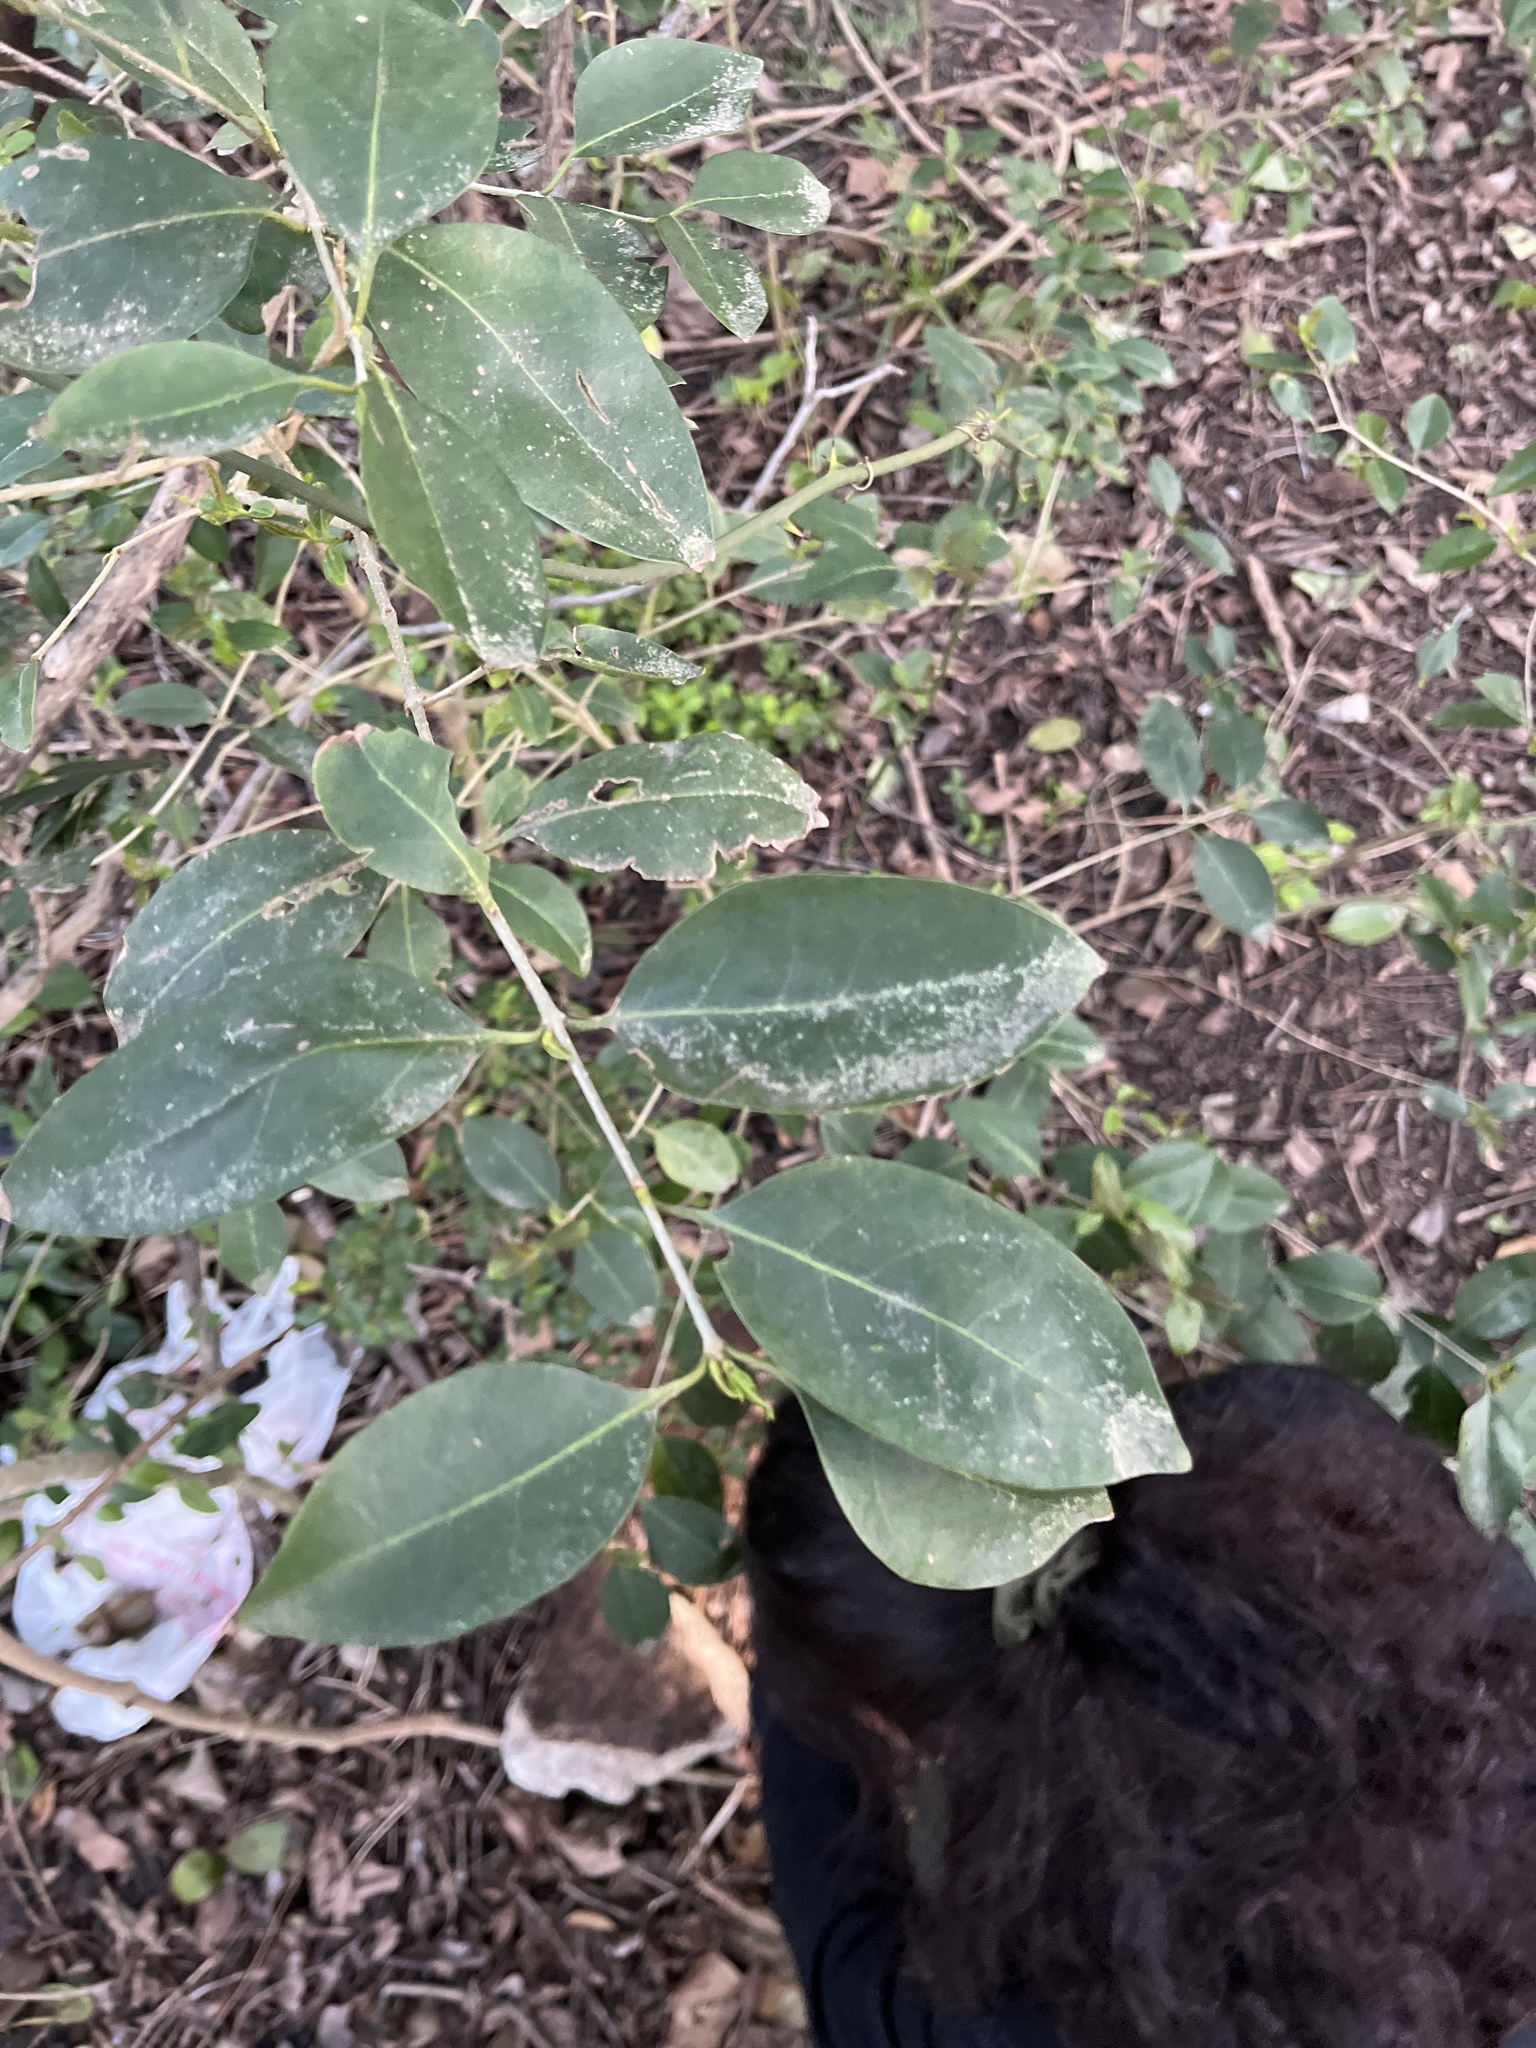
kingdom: Plantae
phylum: Tracheophyta
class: Magnoliopsida
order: Lamiales
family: Oleaceae
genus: Ligustrum
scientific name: Ligustrum lucidum
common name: Glossy privet
